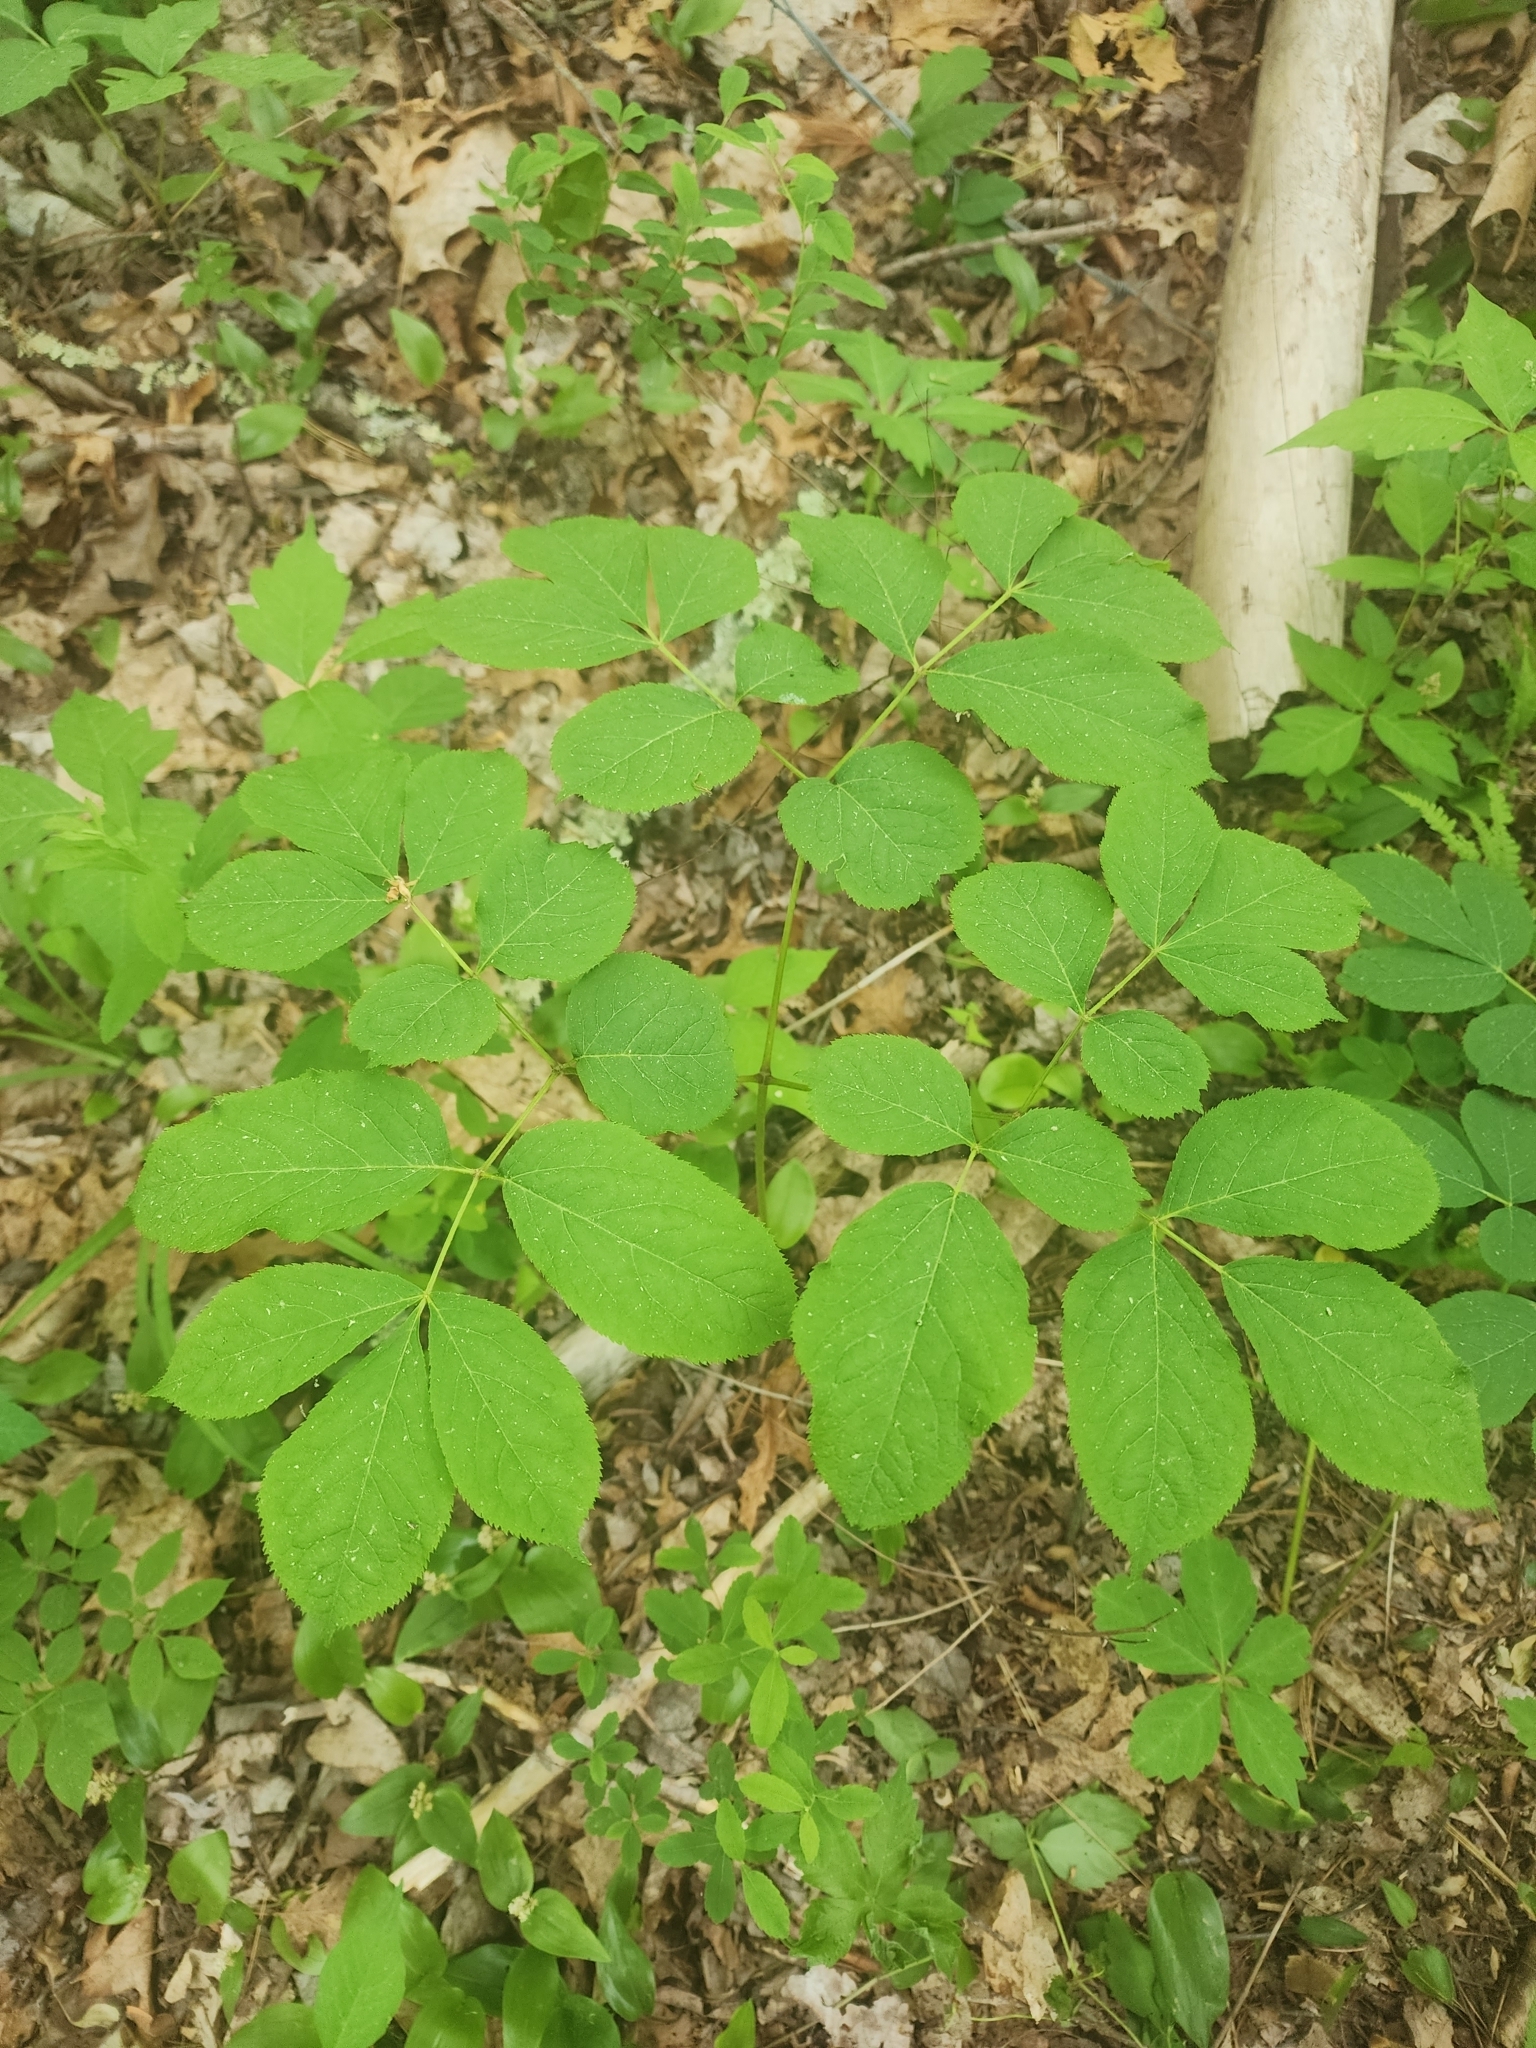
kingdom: Plantae
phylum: Tracheophyta
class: Magnoliopsida
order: Apiales
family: Araliaceae
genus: Aralia
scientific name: Aralia nudicaulis
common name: Wild sarsaparilla
